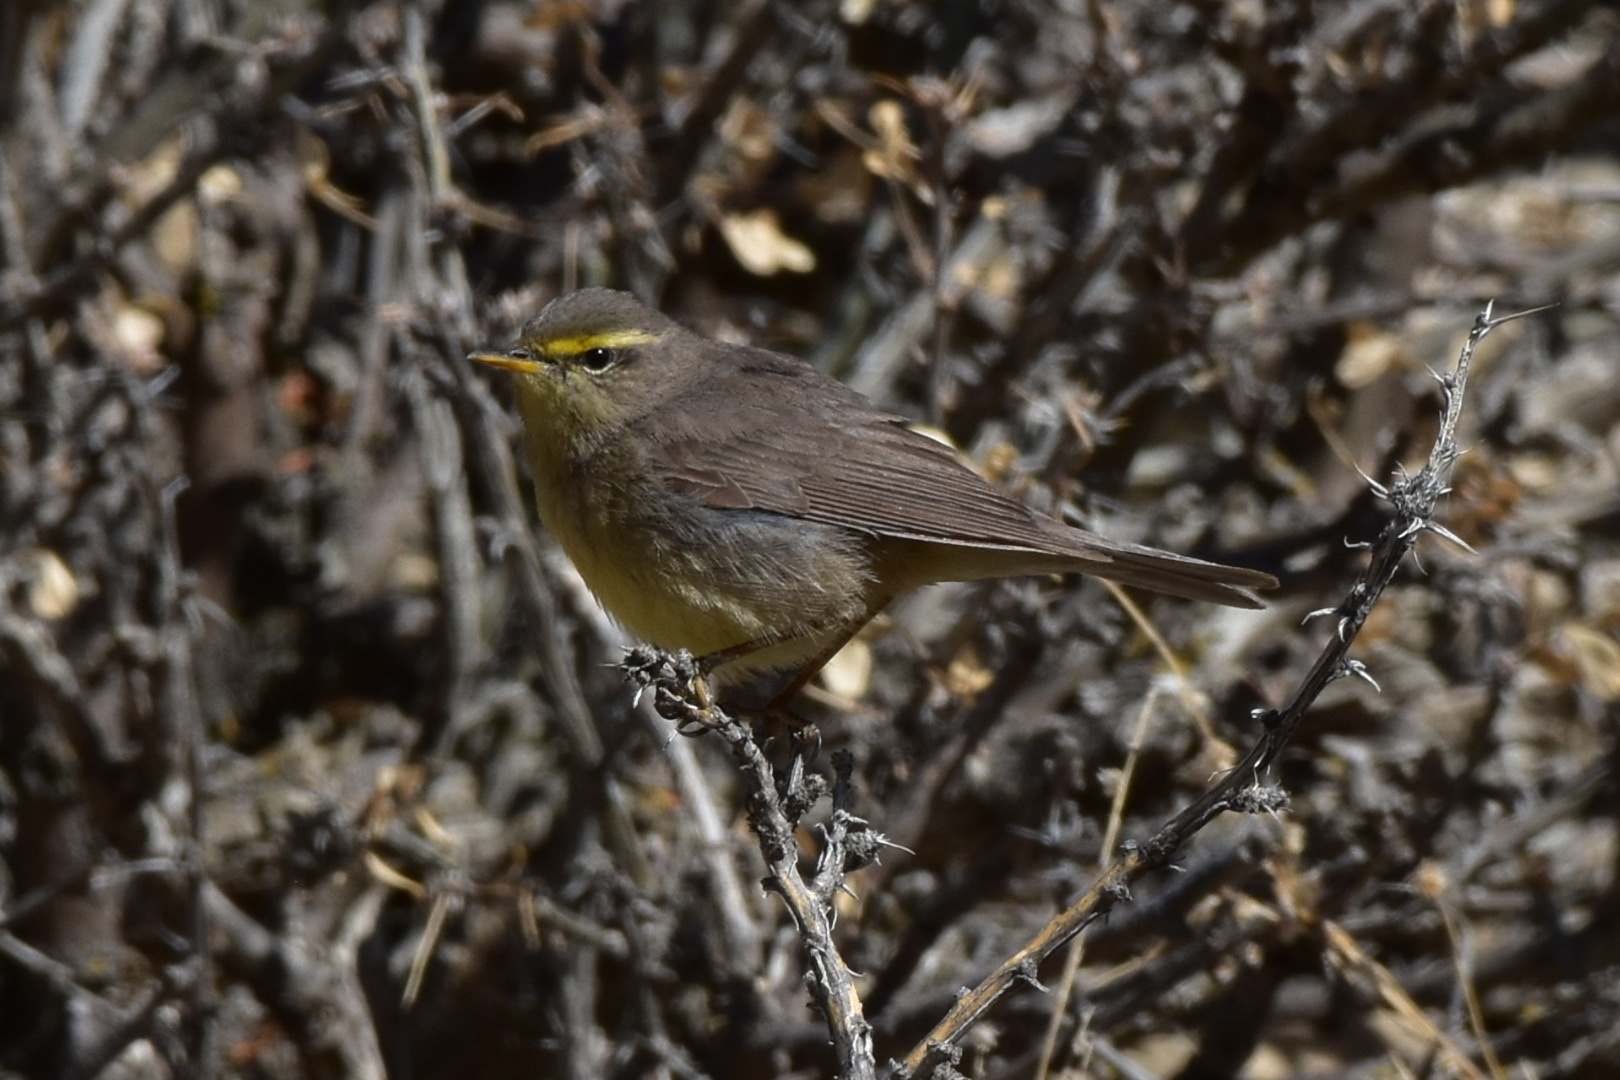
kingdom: Animalia
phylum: Chordata
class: Aves
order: Passeriformes
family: Phylloscopidae
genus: Phylloscopus
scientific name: Phylloscopus griseolus
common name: Sulphur-bellied warbler
